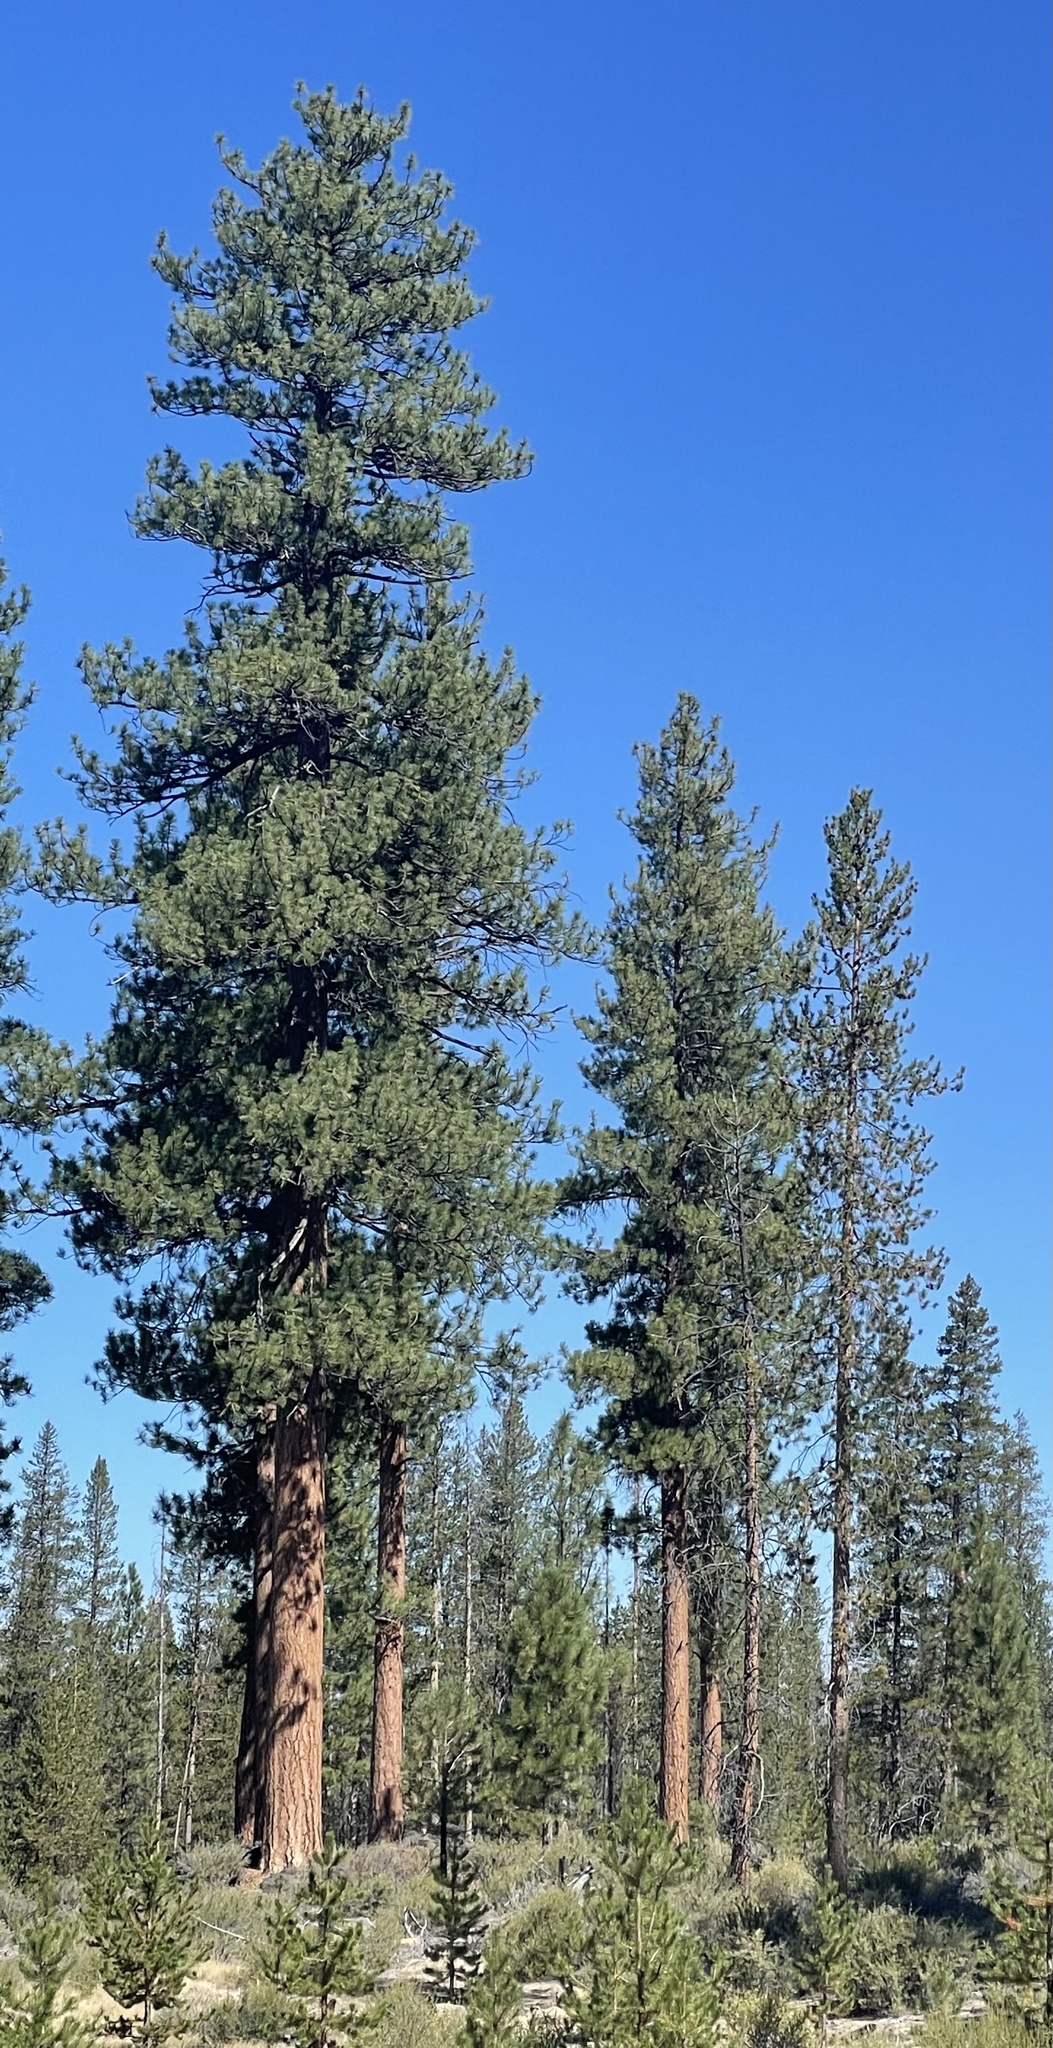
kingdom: Plantae
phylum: Tracheophyta
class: Pinopsida
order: Pinales
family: Pinaceae
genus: Pinus
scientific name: Pinus ponderosa
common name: Western yellow-pine
